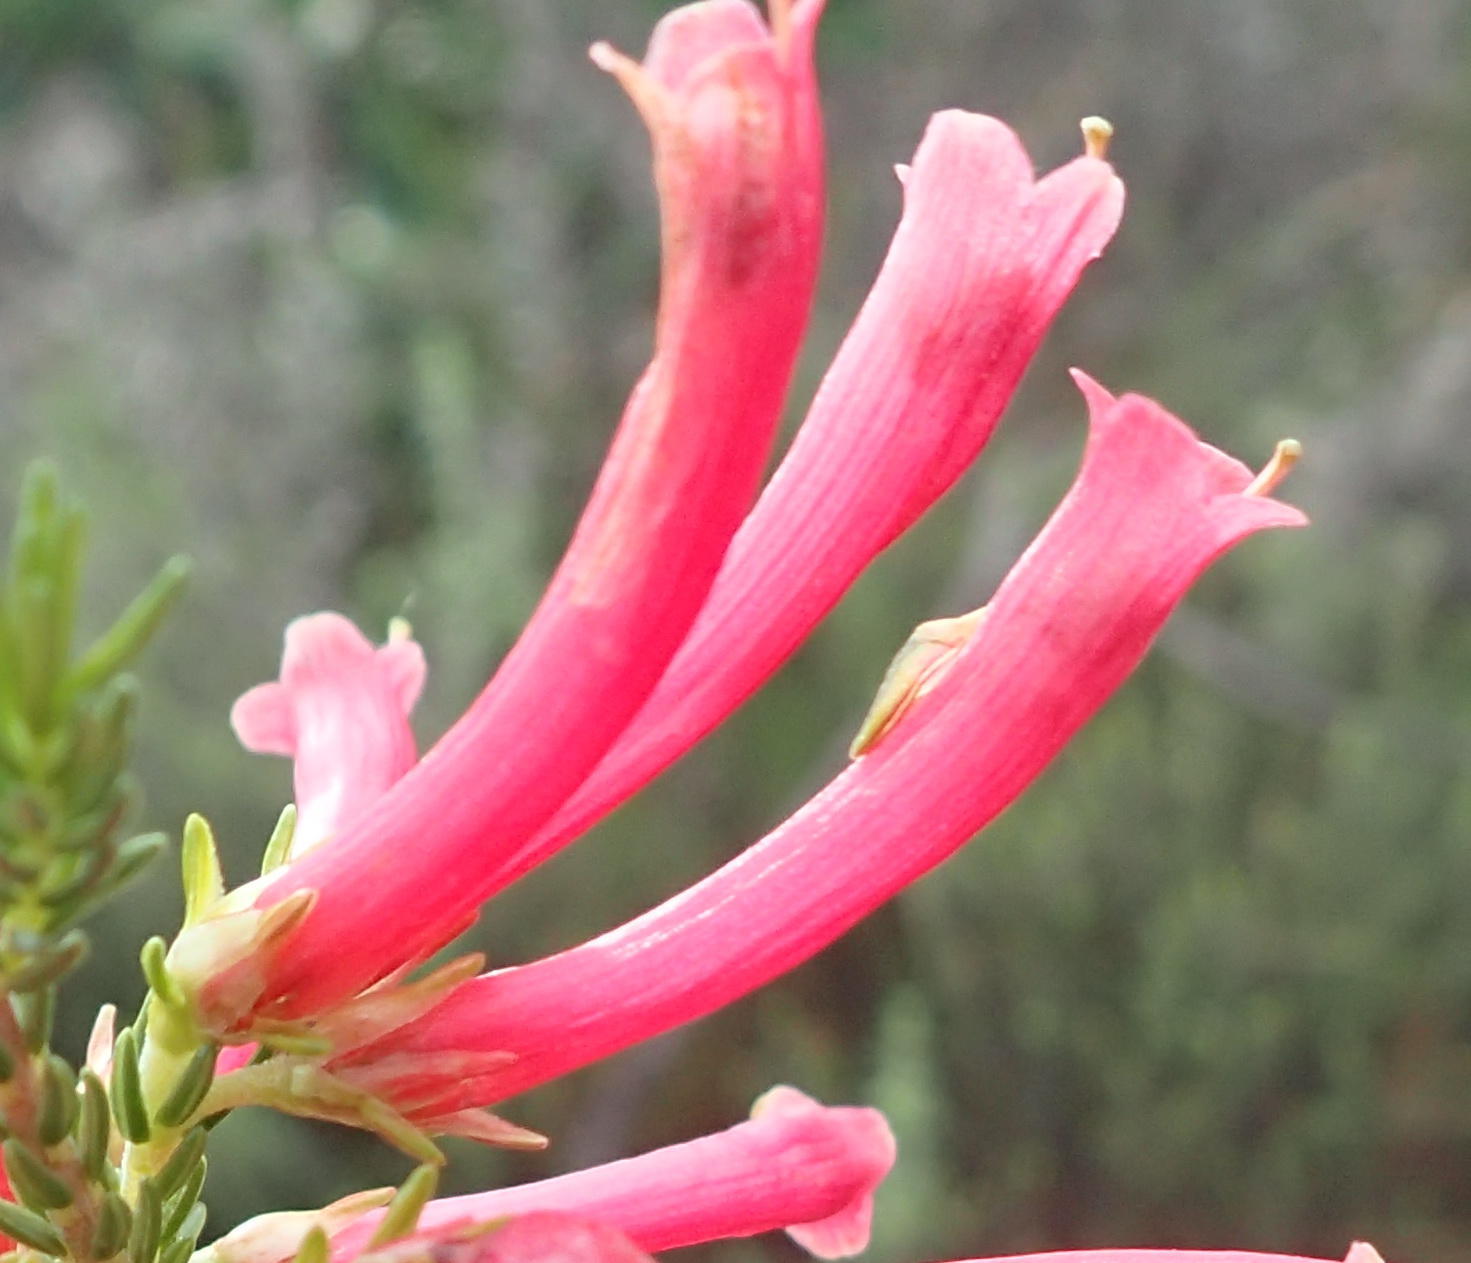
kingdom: Plantae
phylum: Tracheophyta
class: Magnoliopsida
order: Ericales
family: Ericaceae
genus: Erica
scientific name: Erica discolor
